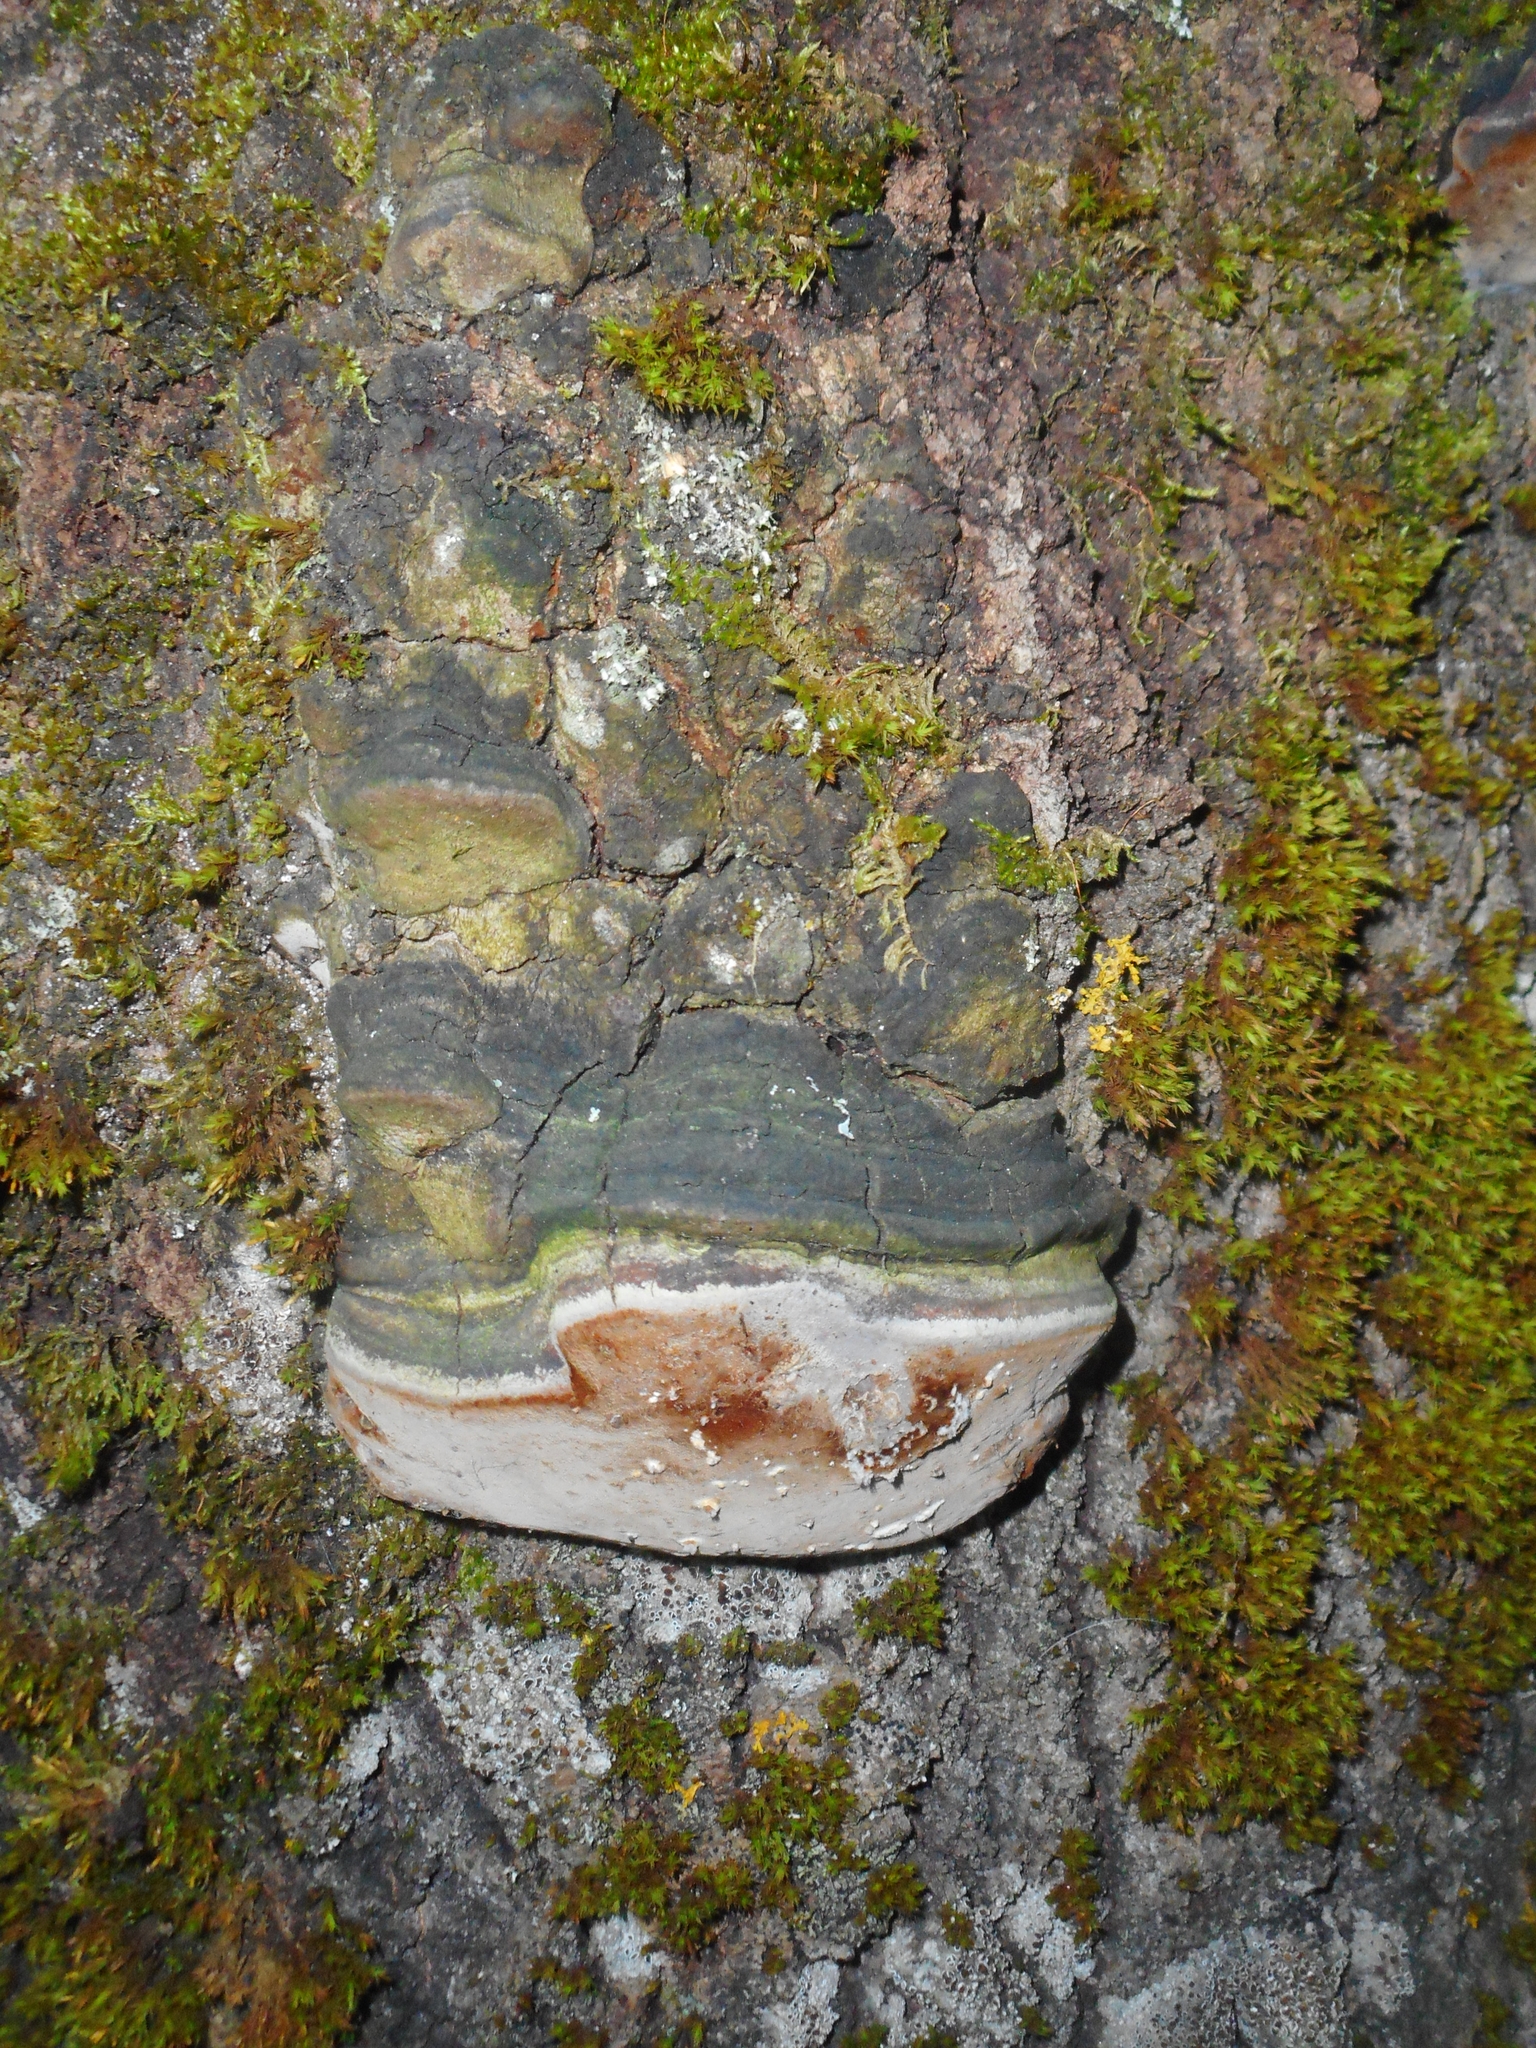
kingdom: Fungi
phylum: Basidiomycota
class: Agaricomycetes
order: Hymenochaetales
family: Hymenochaetaceae
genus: Phellinus
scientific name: Phellinus tremulae
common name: Aspen bracket
